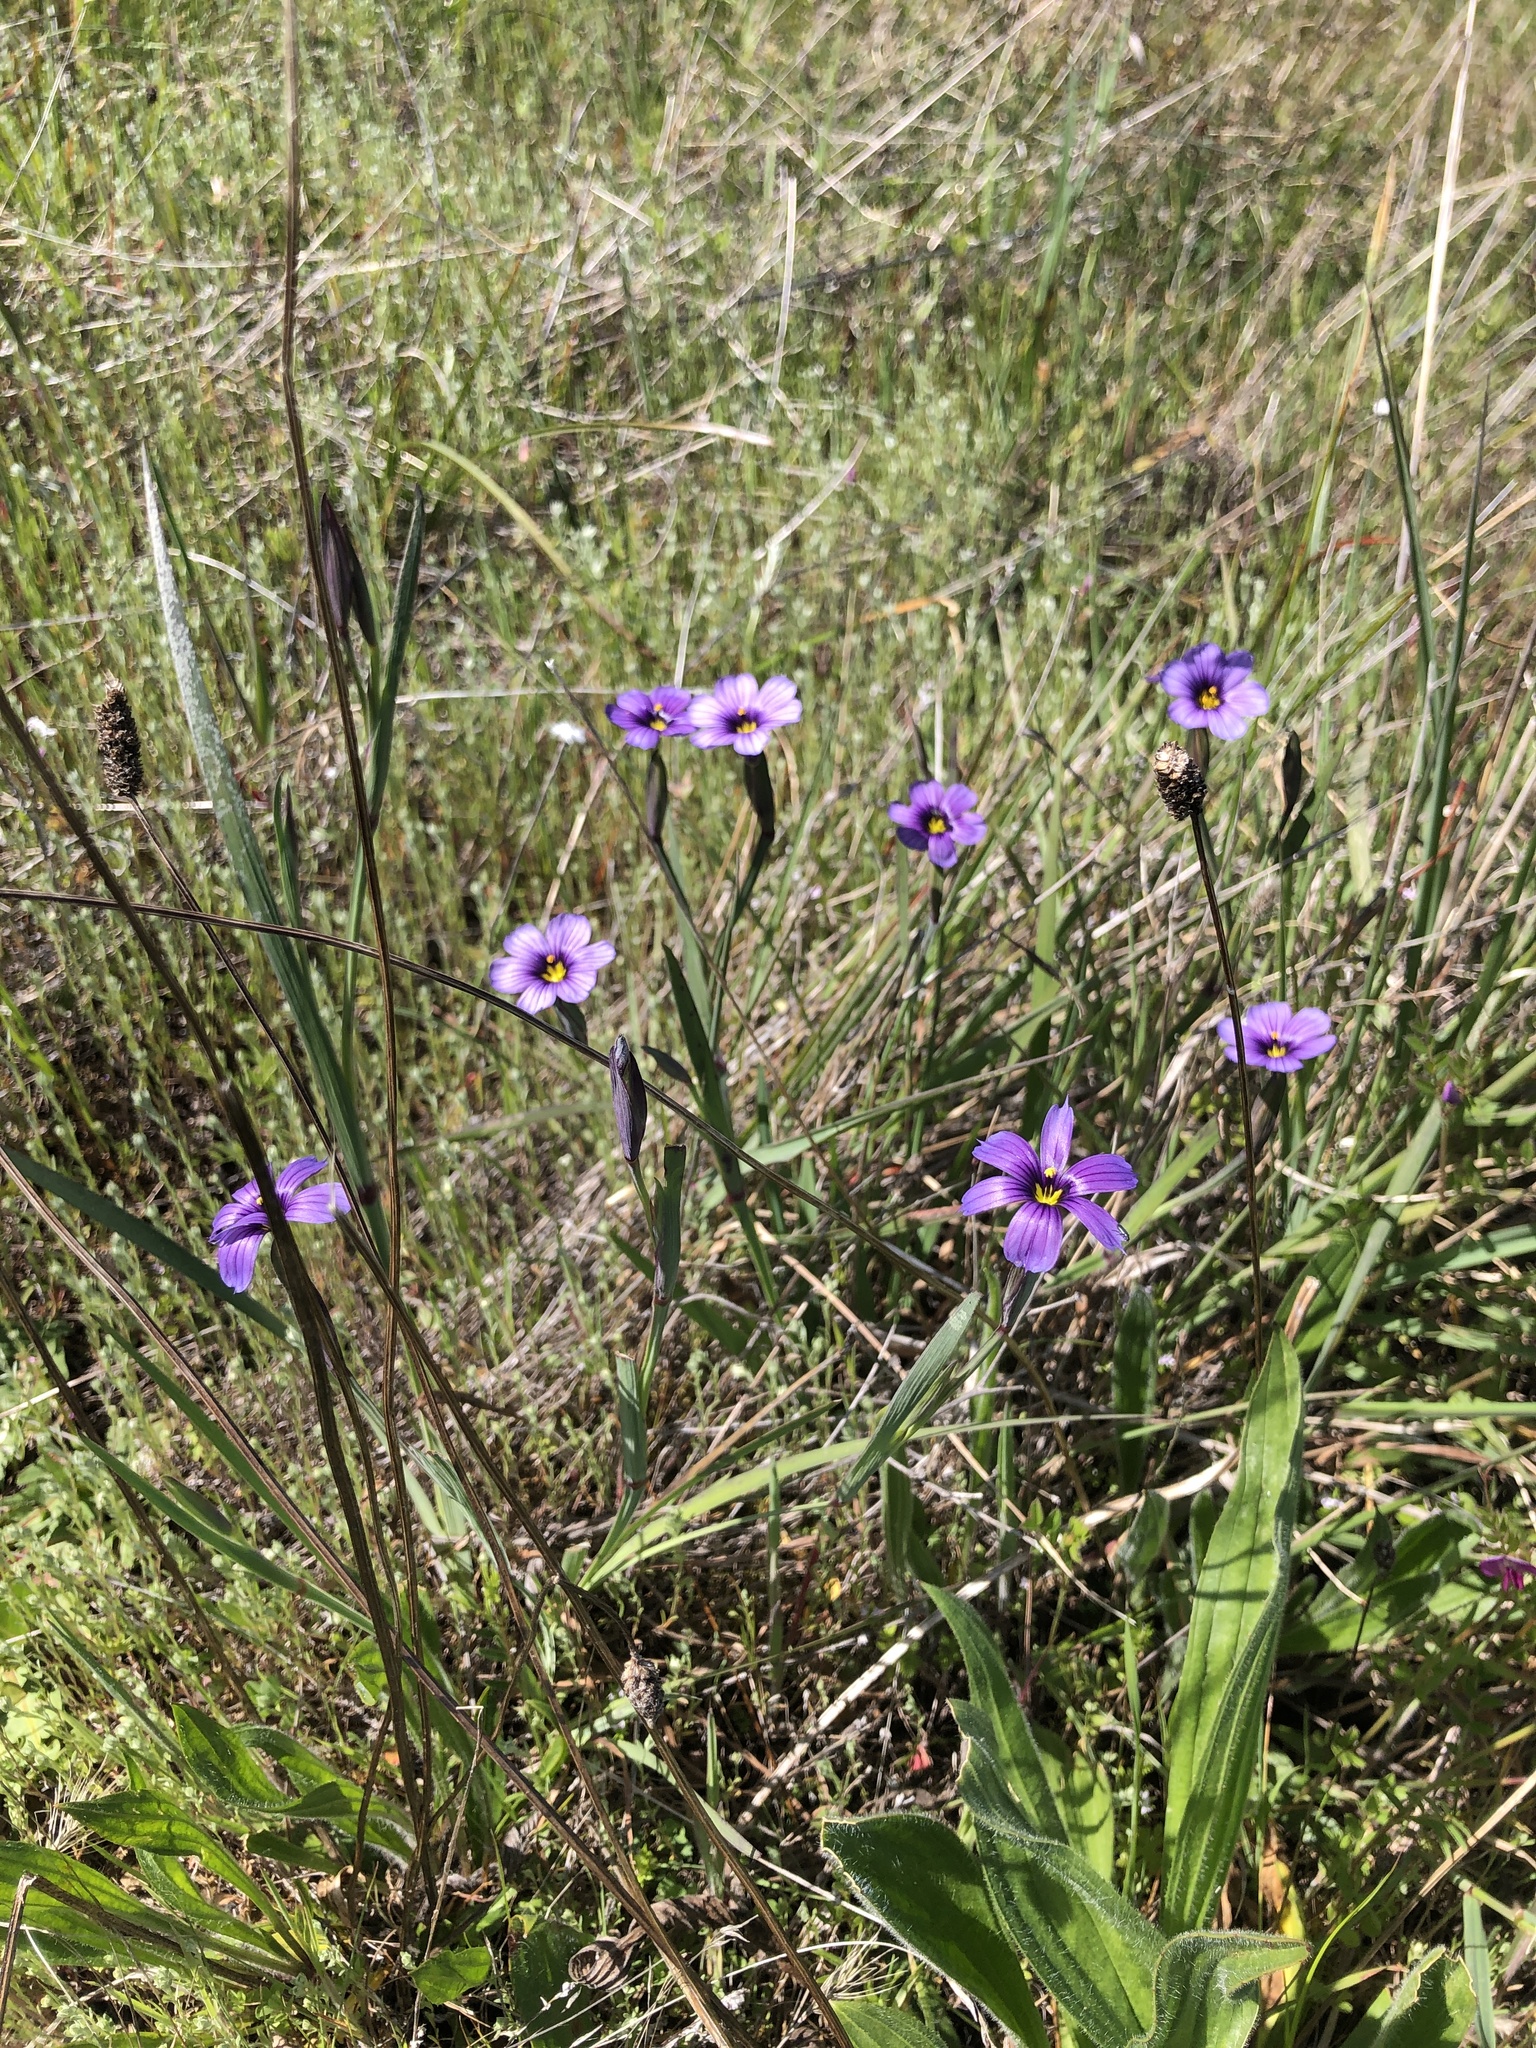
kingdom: Plantae
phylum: Tracheophyta
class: Liliopsida
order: Asparagales
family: Iridaceae
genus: Sisyrinchium
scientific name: Sisyrinchium bellum
